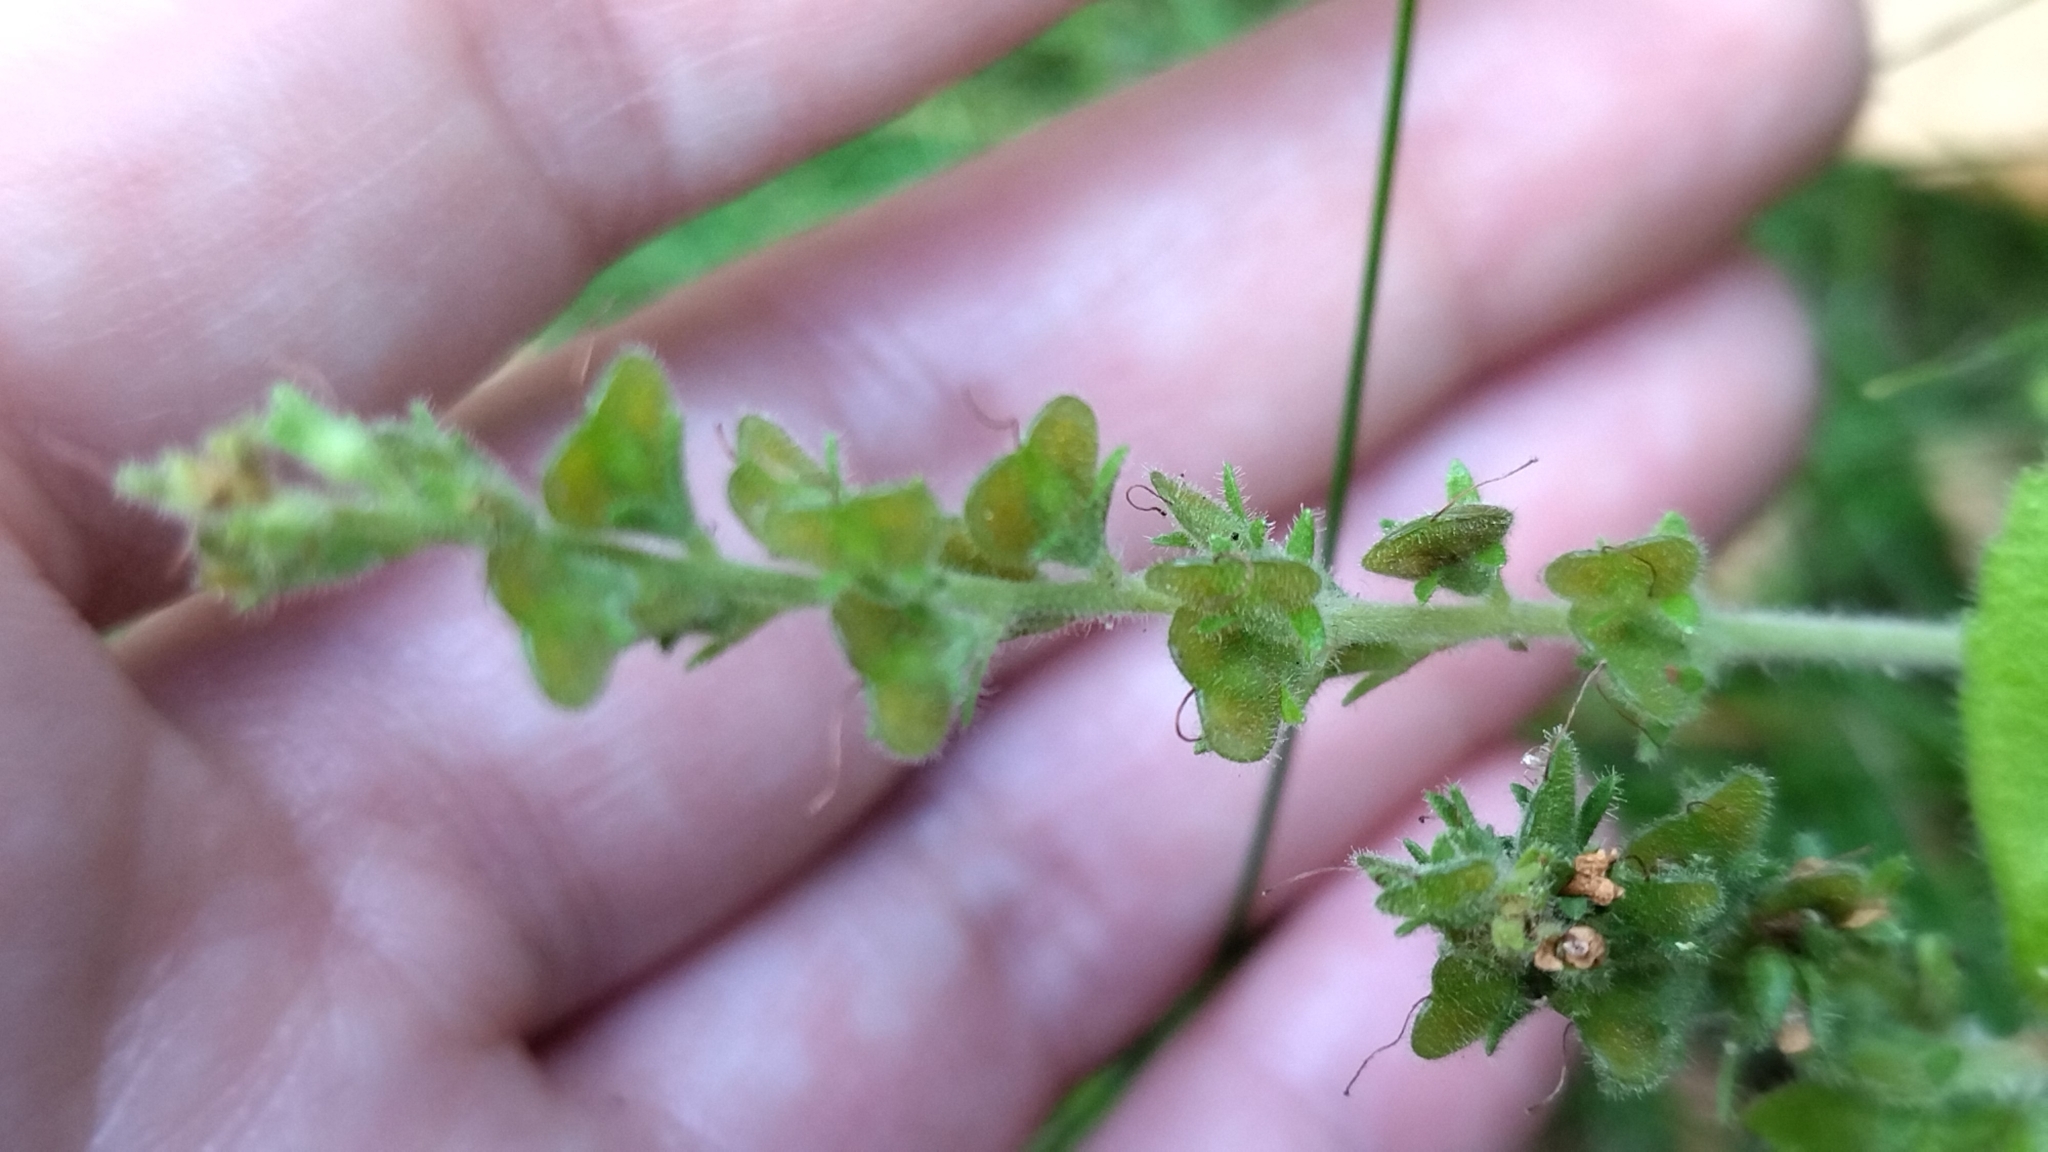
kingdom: Plantae
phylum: Tracheophyta
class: Magnoliopsida
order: Lamiales
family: Plantaginaceae
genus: Veronica
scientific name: Veronica officinalis
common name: Common speedwell
